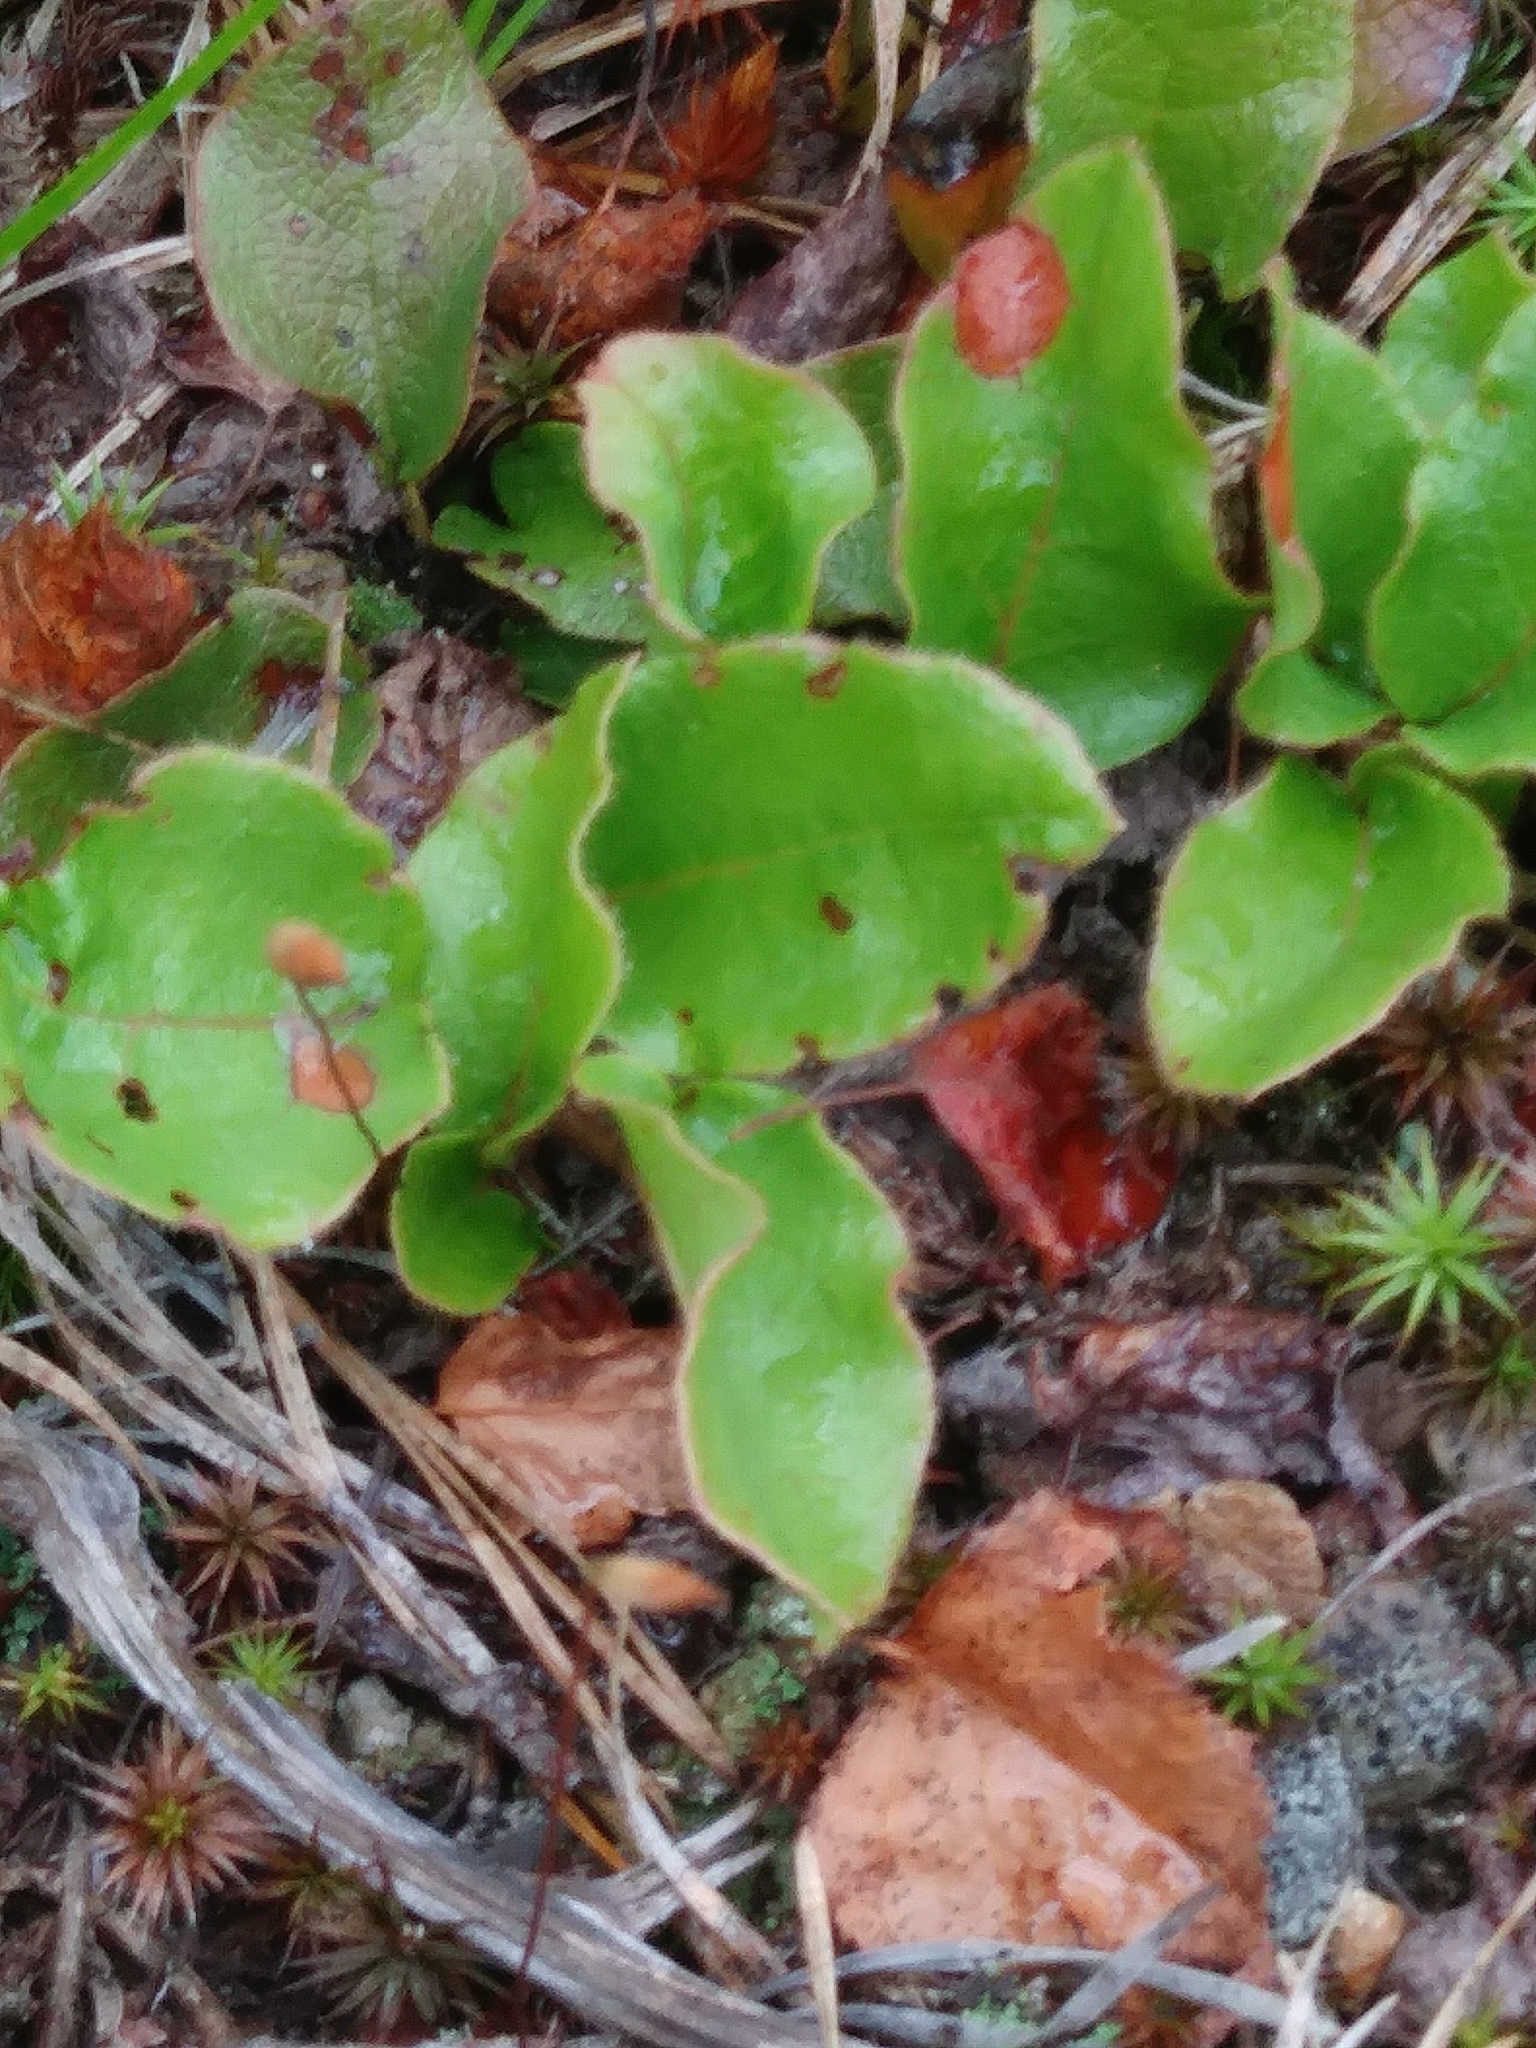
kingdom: Plantae
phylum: Tracheophyta
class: Magnoliopsida
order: Ericales
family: Ericaceae
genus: Epigaea
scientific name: Epigaea repens
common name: Gravelroot
